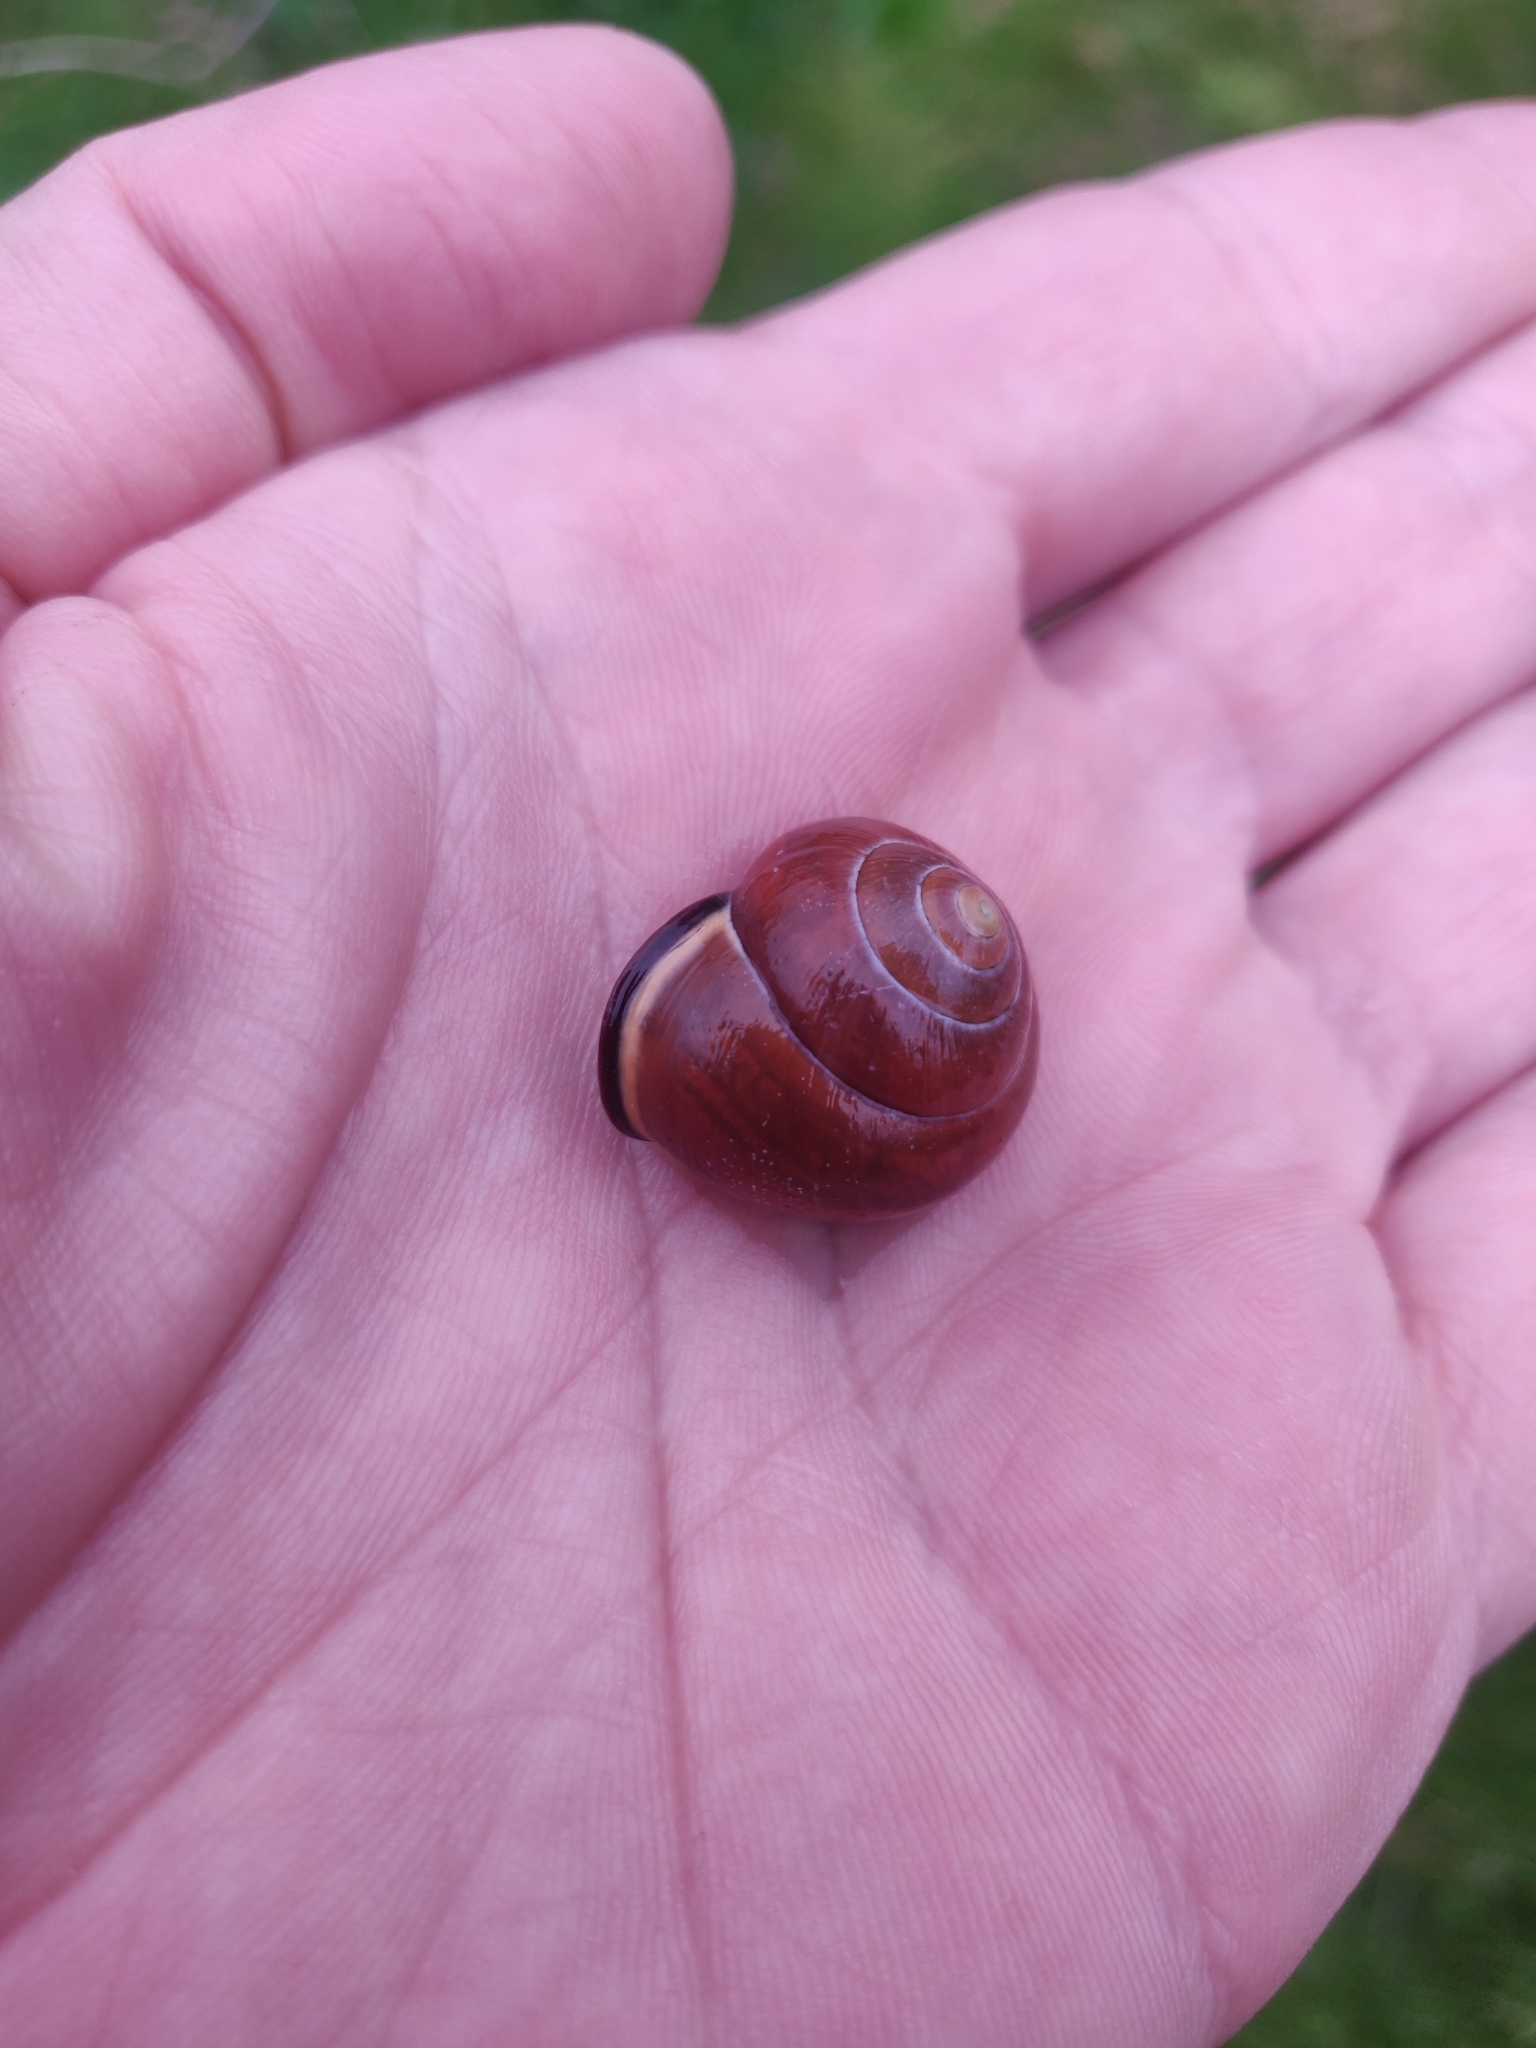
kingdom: Animalia
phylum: Mollusca
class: Gastropoda
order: Stylommatophora
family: Helicidae
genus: Cepaea
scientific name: Cepaea nemoralis
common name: Grovesnail
